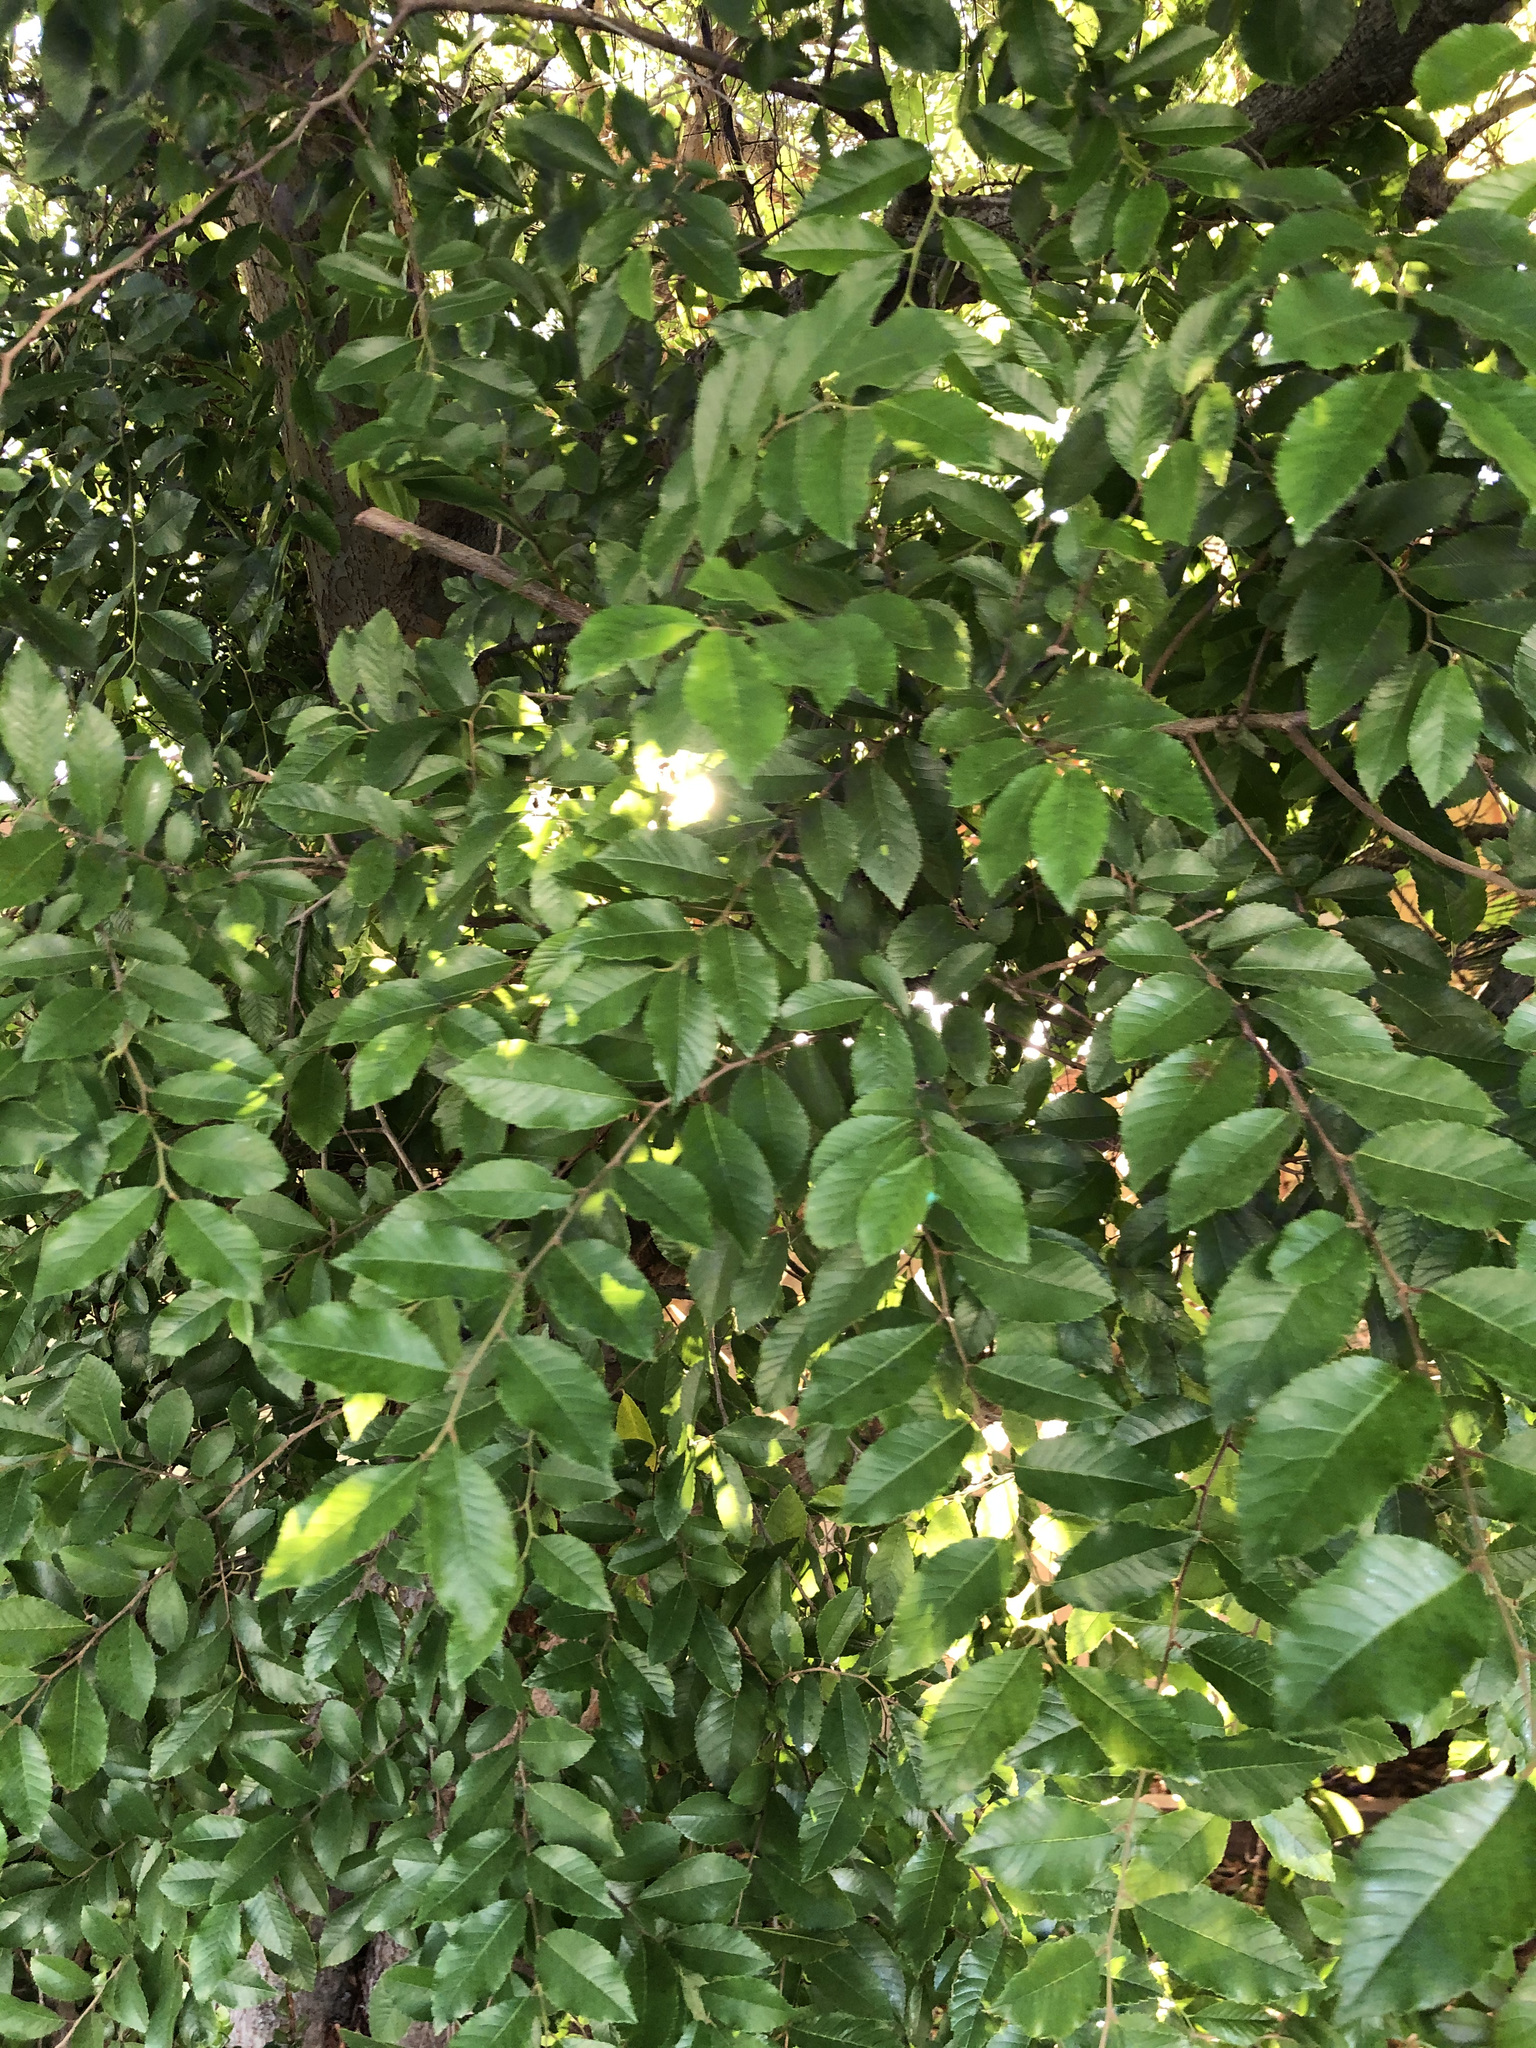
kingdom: Plantae
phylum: Tracheophyta
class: Magnoliopsida
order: Rosales
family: Ulmaceae
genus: Ulmus
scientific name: Ulmus parvifolia
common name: Chinese elm
